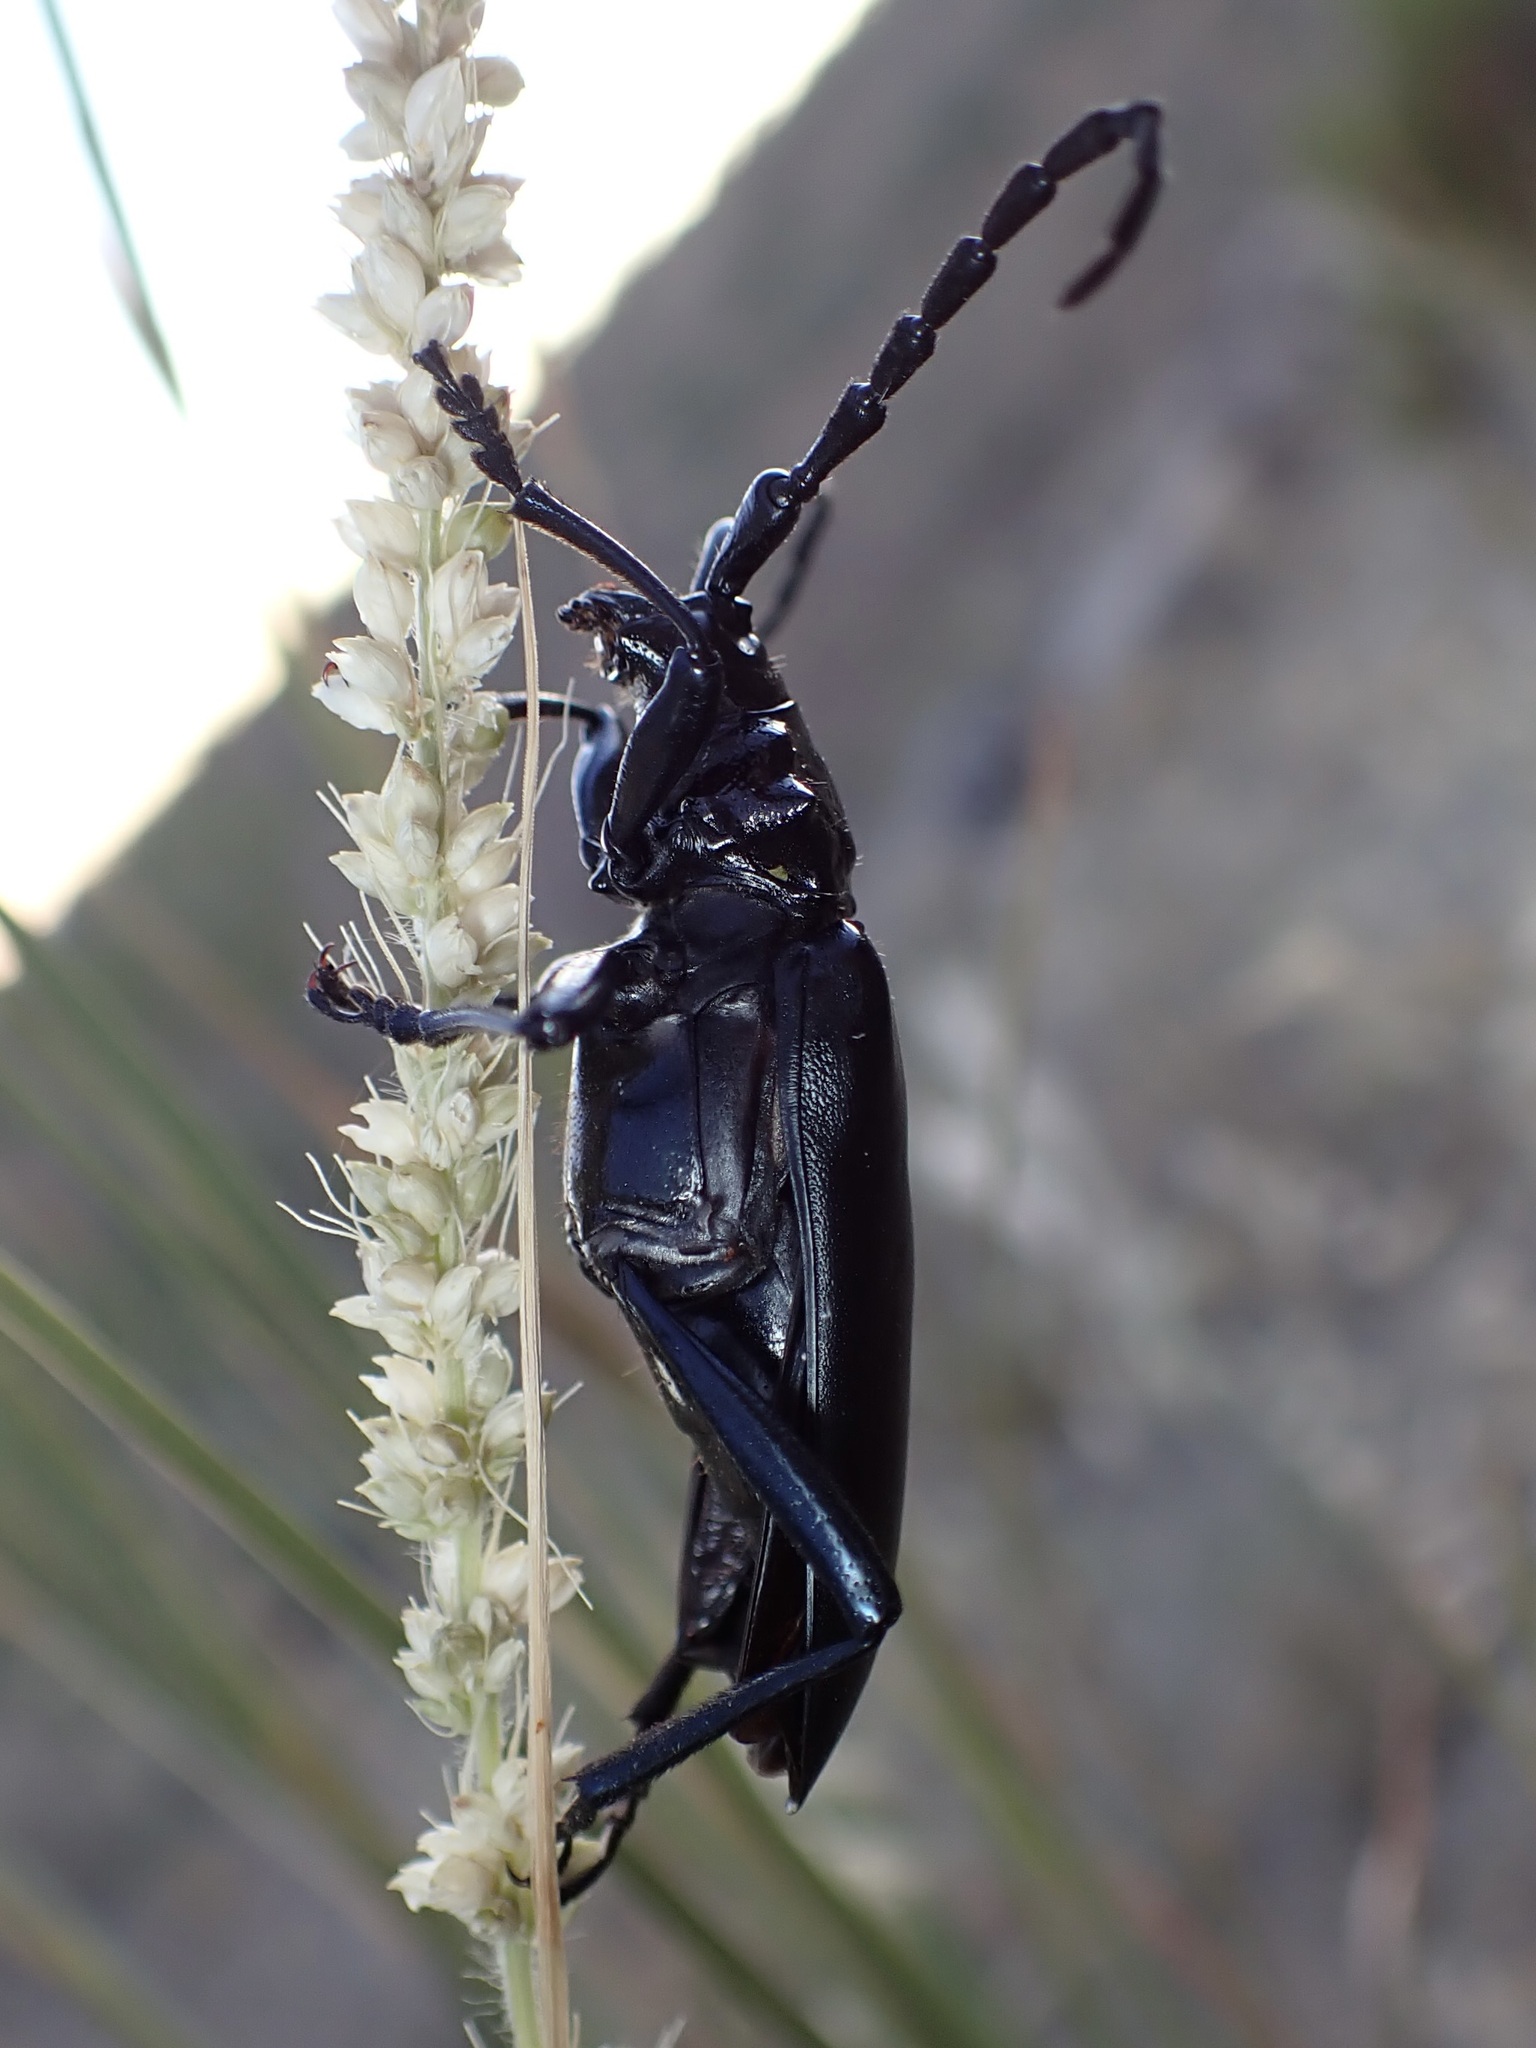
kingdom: Animalia
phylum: Arthropoda
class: Insecta
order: Coleoptera
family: Cerambycidae
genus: Stenaspis
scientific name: Stenaspis solitaria
